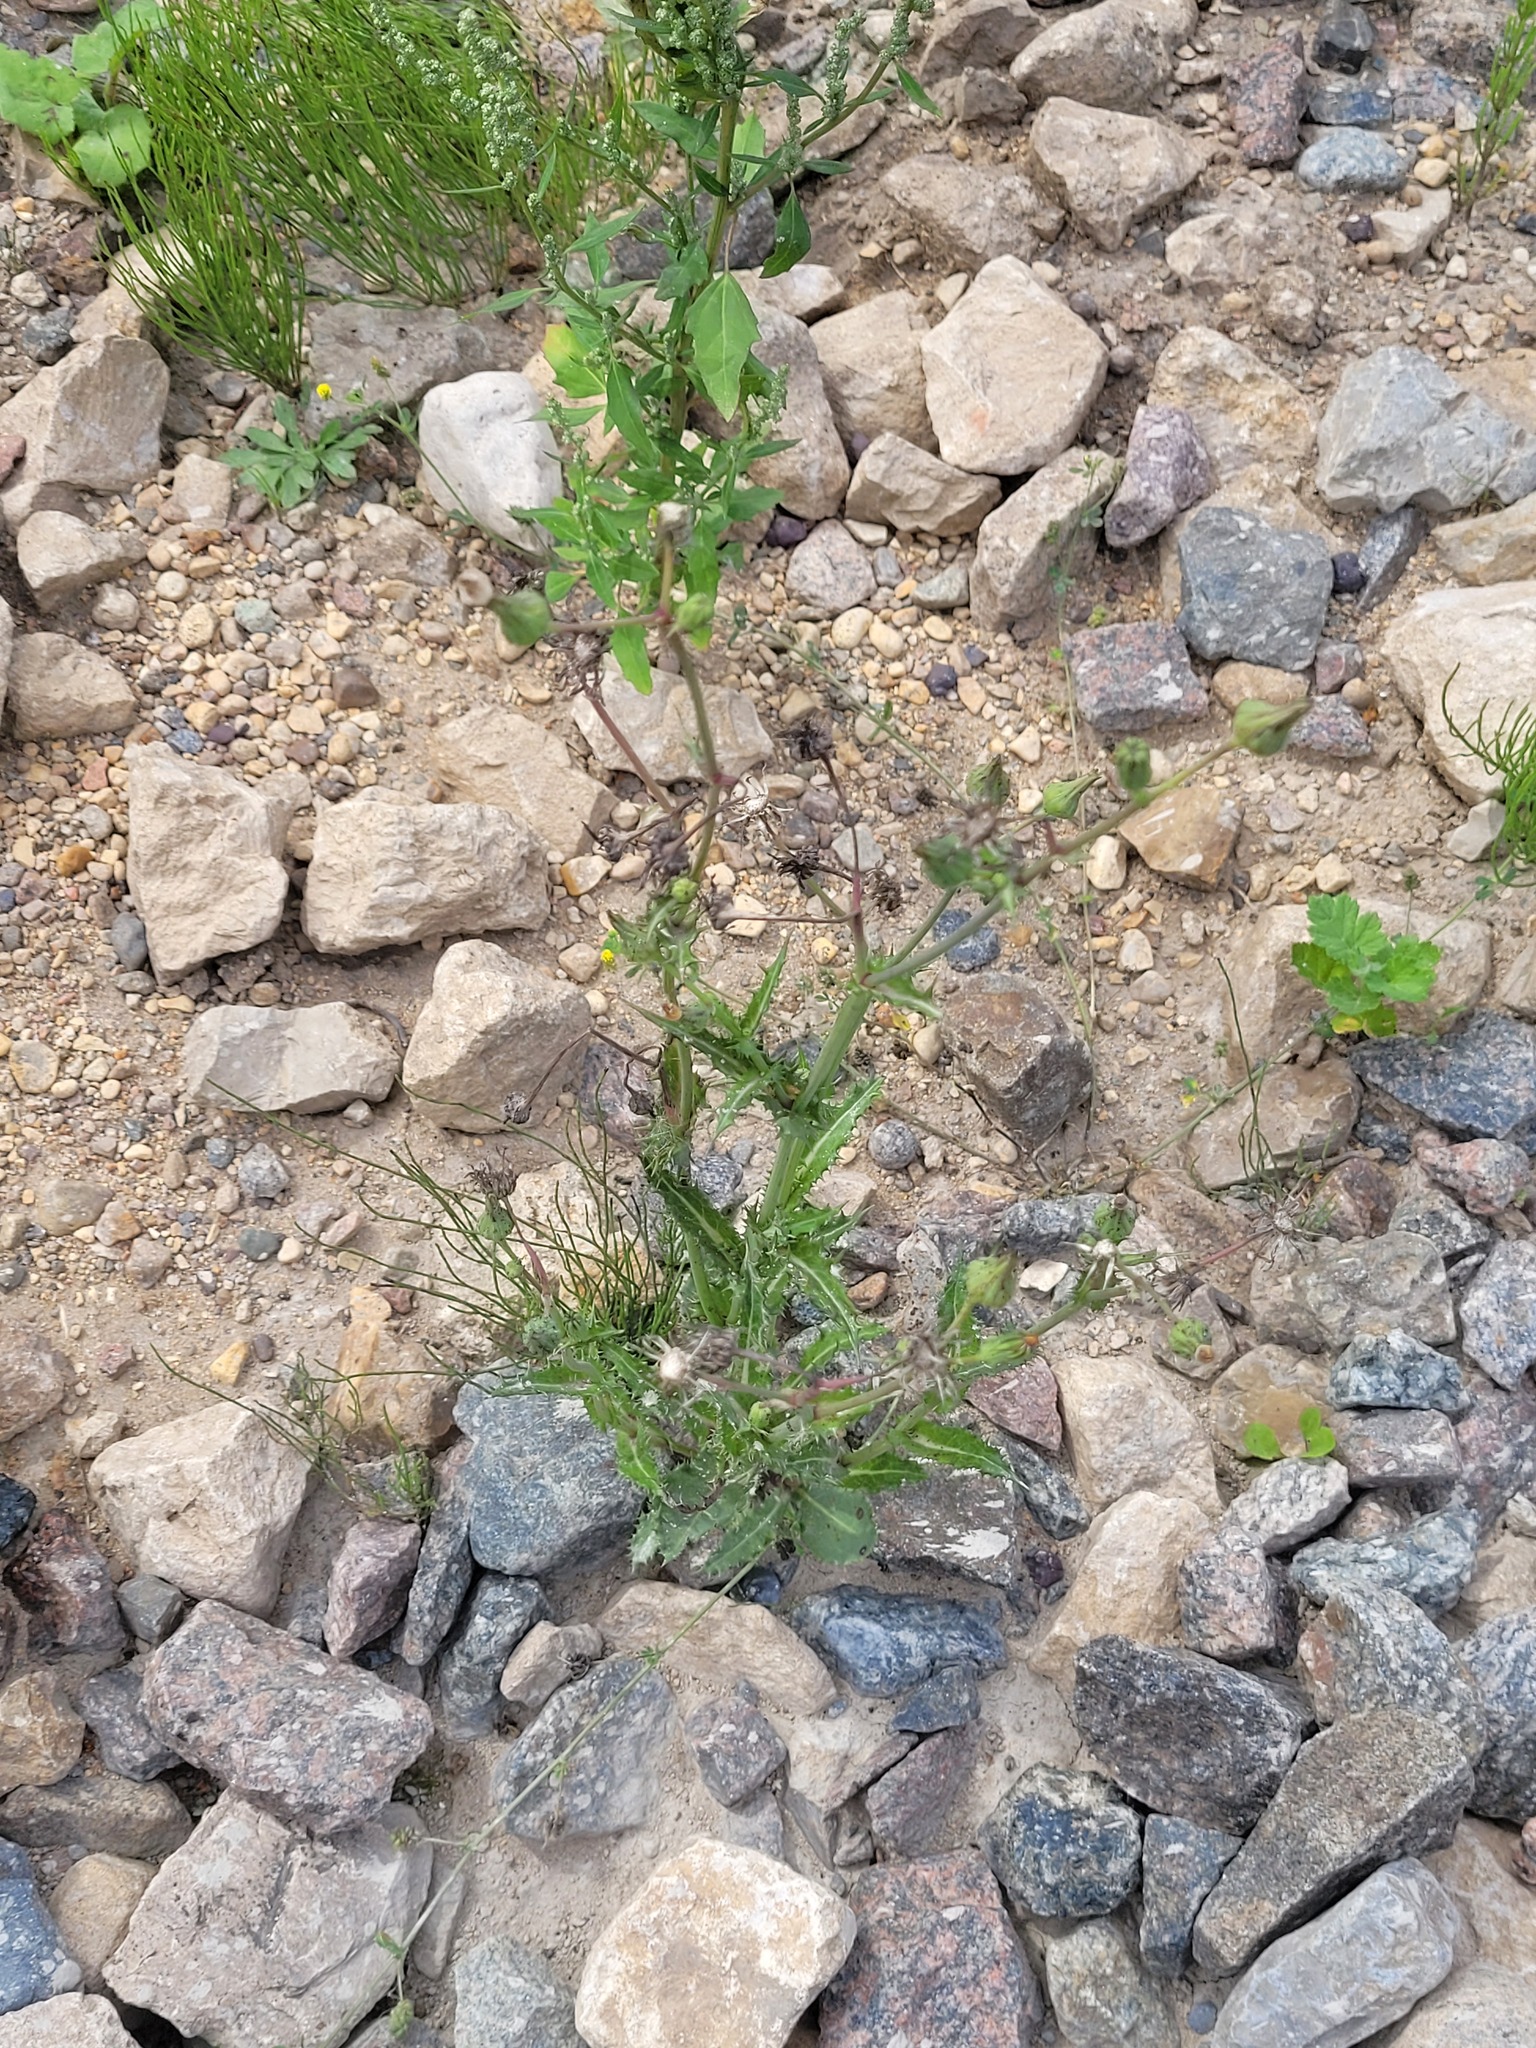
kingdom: Plantae
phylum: Tracheophyta
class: Magnoliopsida
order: Asterales
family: Asteraceae
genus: Sonchus
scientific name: Sonchus asper
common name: Prickly sow-thistle
